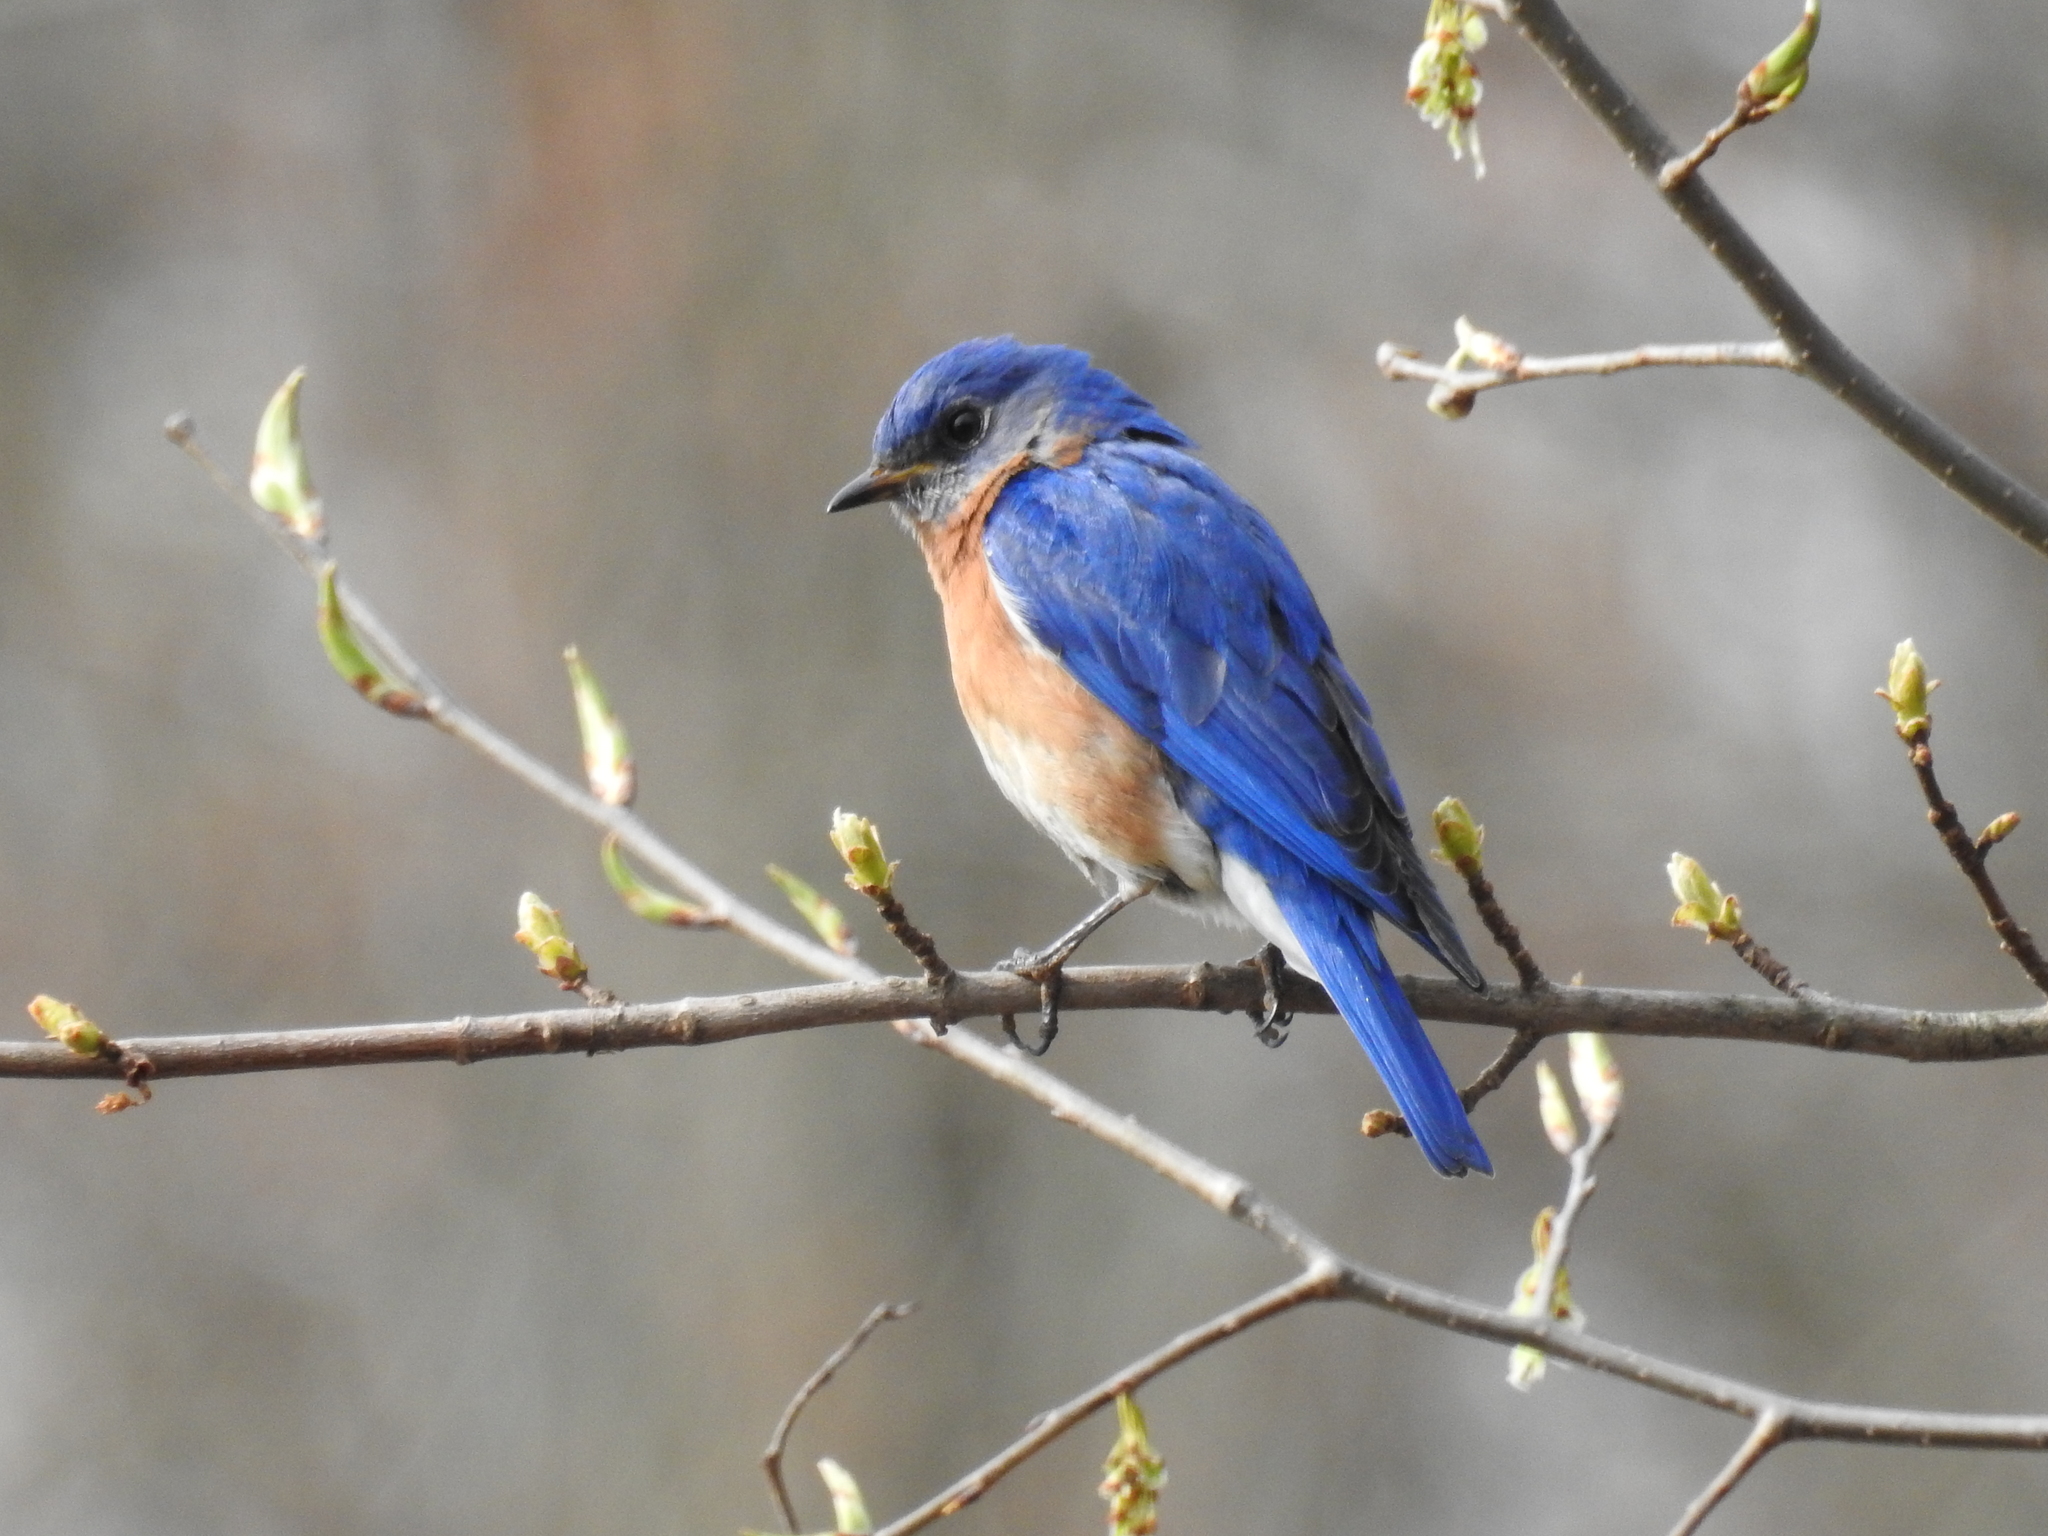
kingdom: Animalia
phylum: Chordata
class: Aves
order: Passeriformes
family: Turdidae
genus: Sialia
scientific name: Sialia sialis
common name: Eastern bluebird
